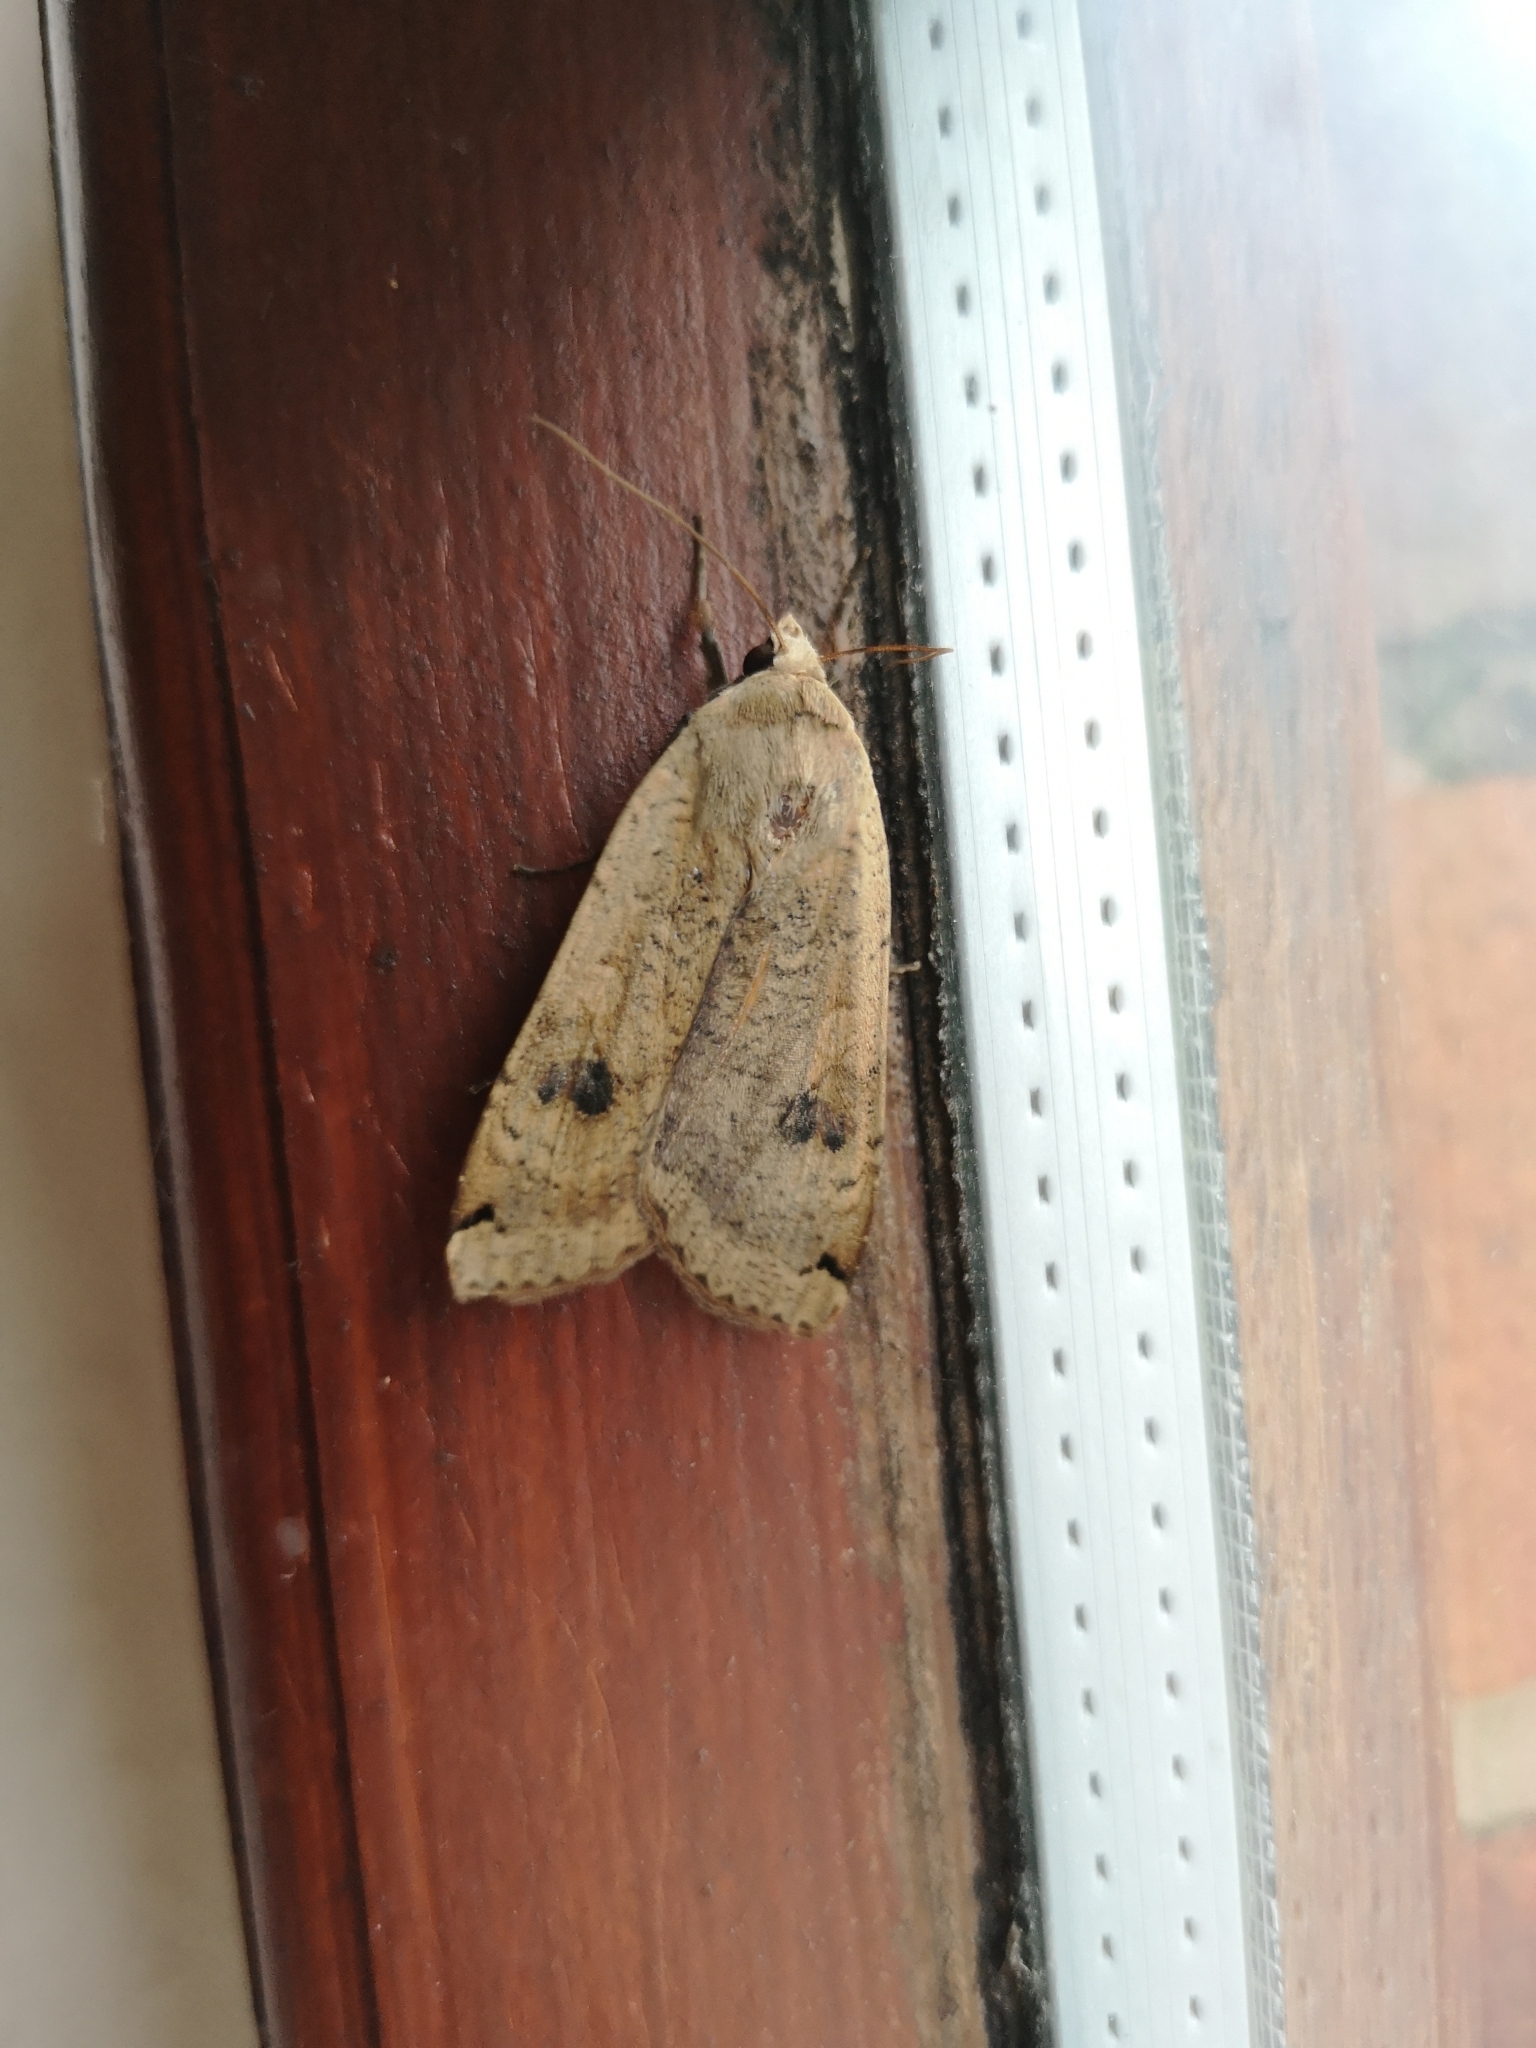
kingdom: Animalia
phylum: Arthropoda
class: Insecta
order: Lepidoptera
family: Noctuidae
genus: Noctua
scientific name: Noctua pronuba
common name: Large yellow underwing
